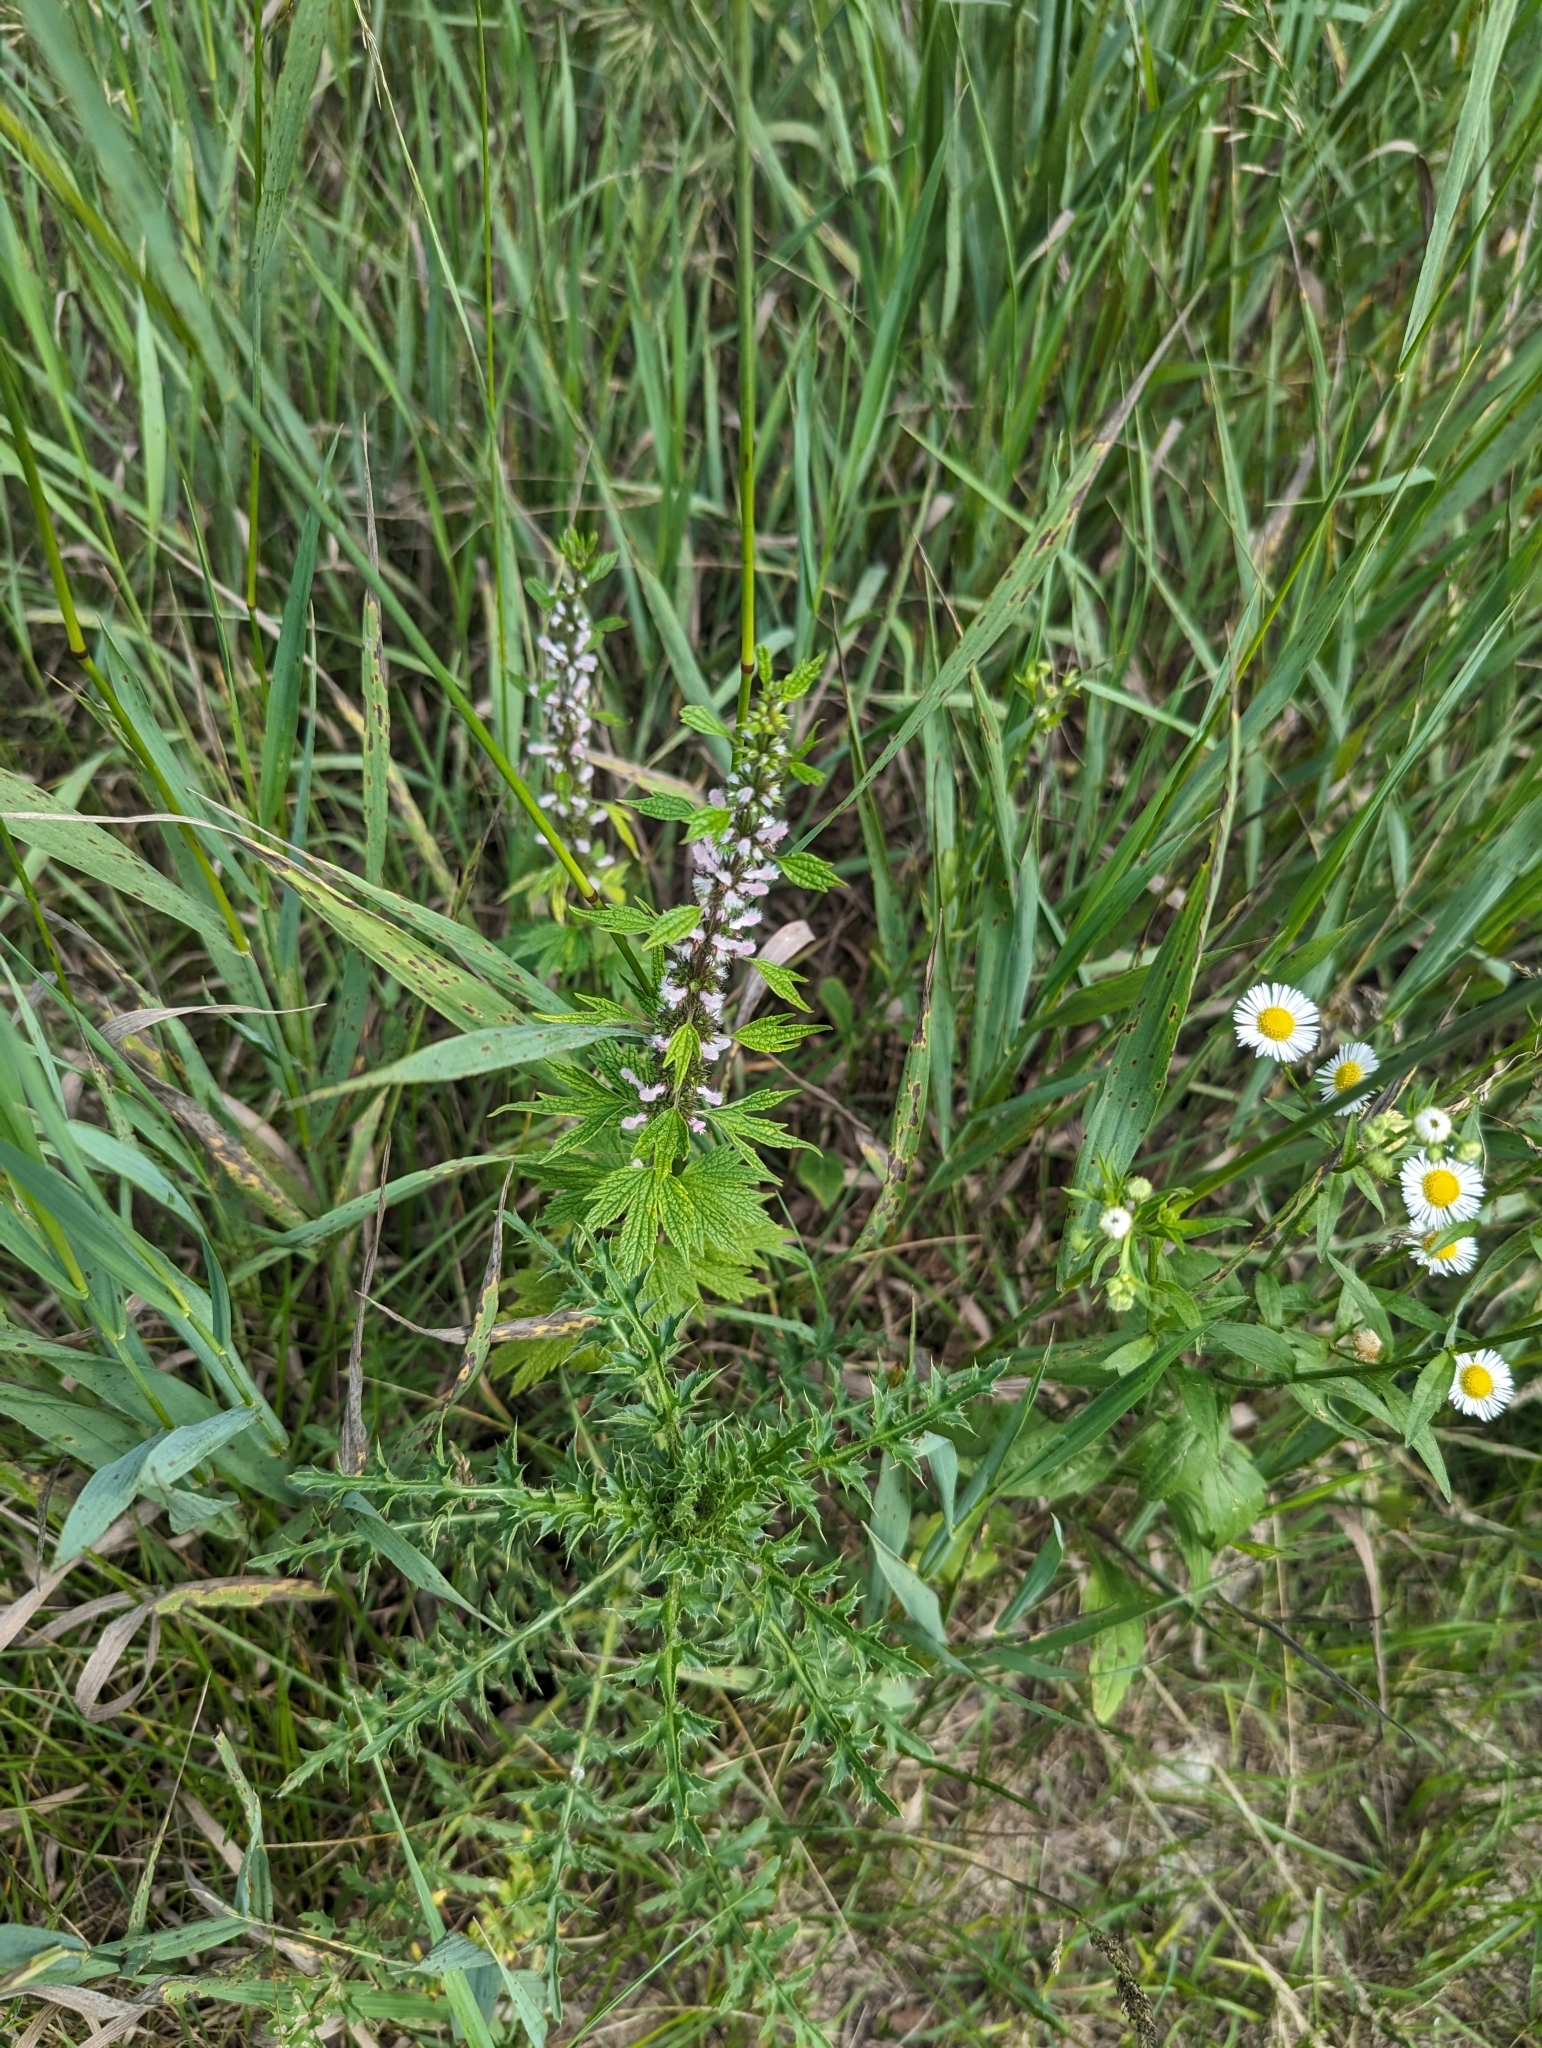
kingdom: Plantae
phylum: Tracheophyta
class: Magnoliopsida
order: Lamiales
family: Lamiaceae
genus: Leonurus
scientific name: Leonurus cardiaca
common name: Motherwort
